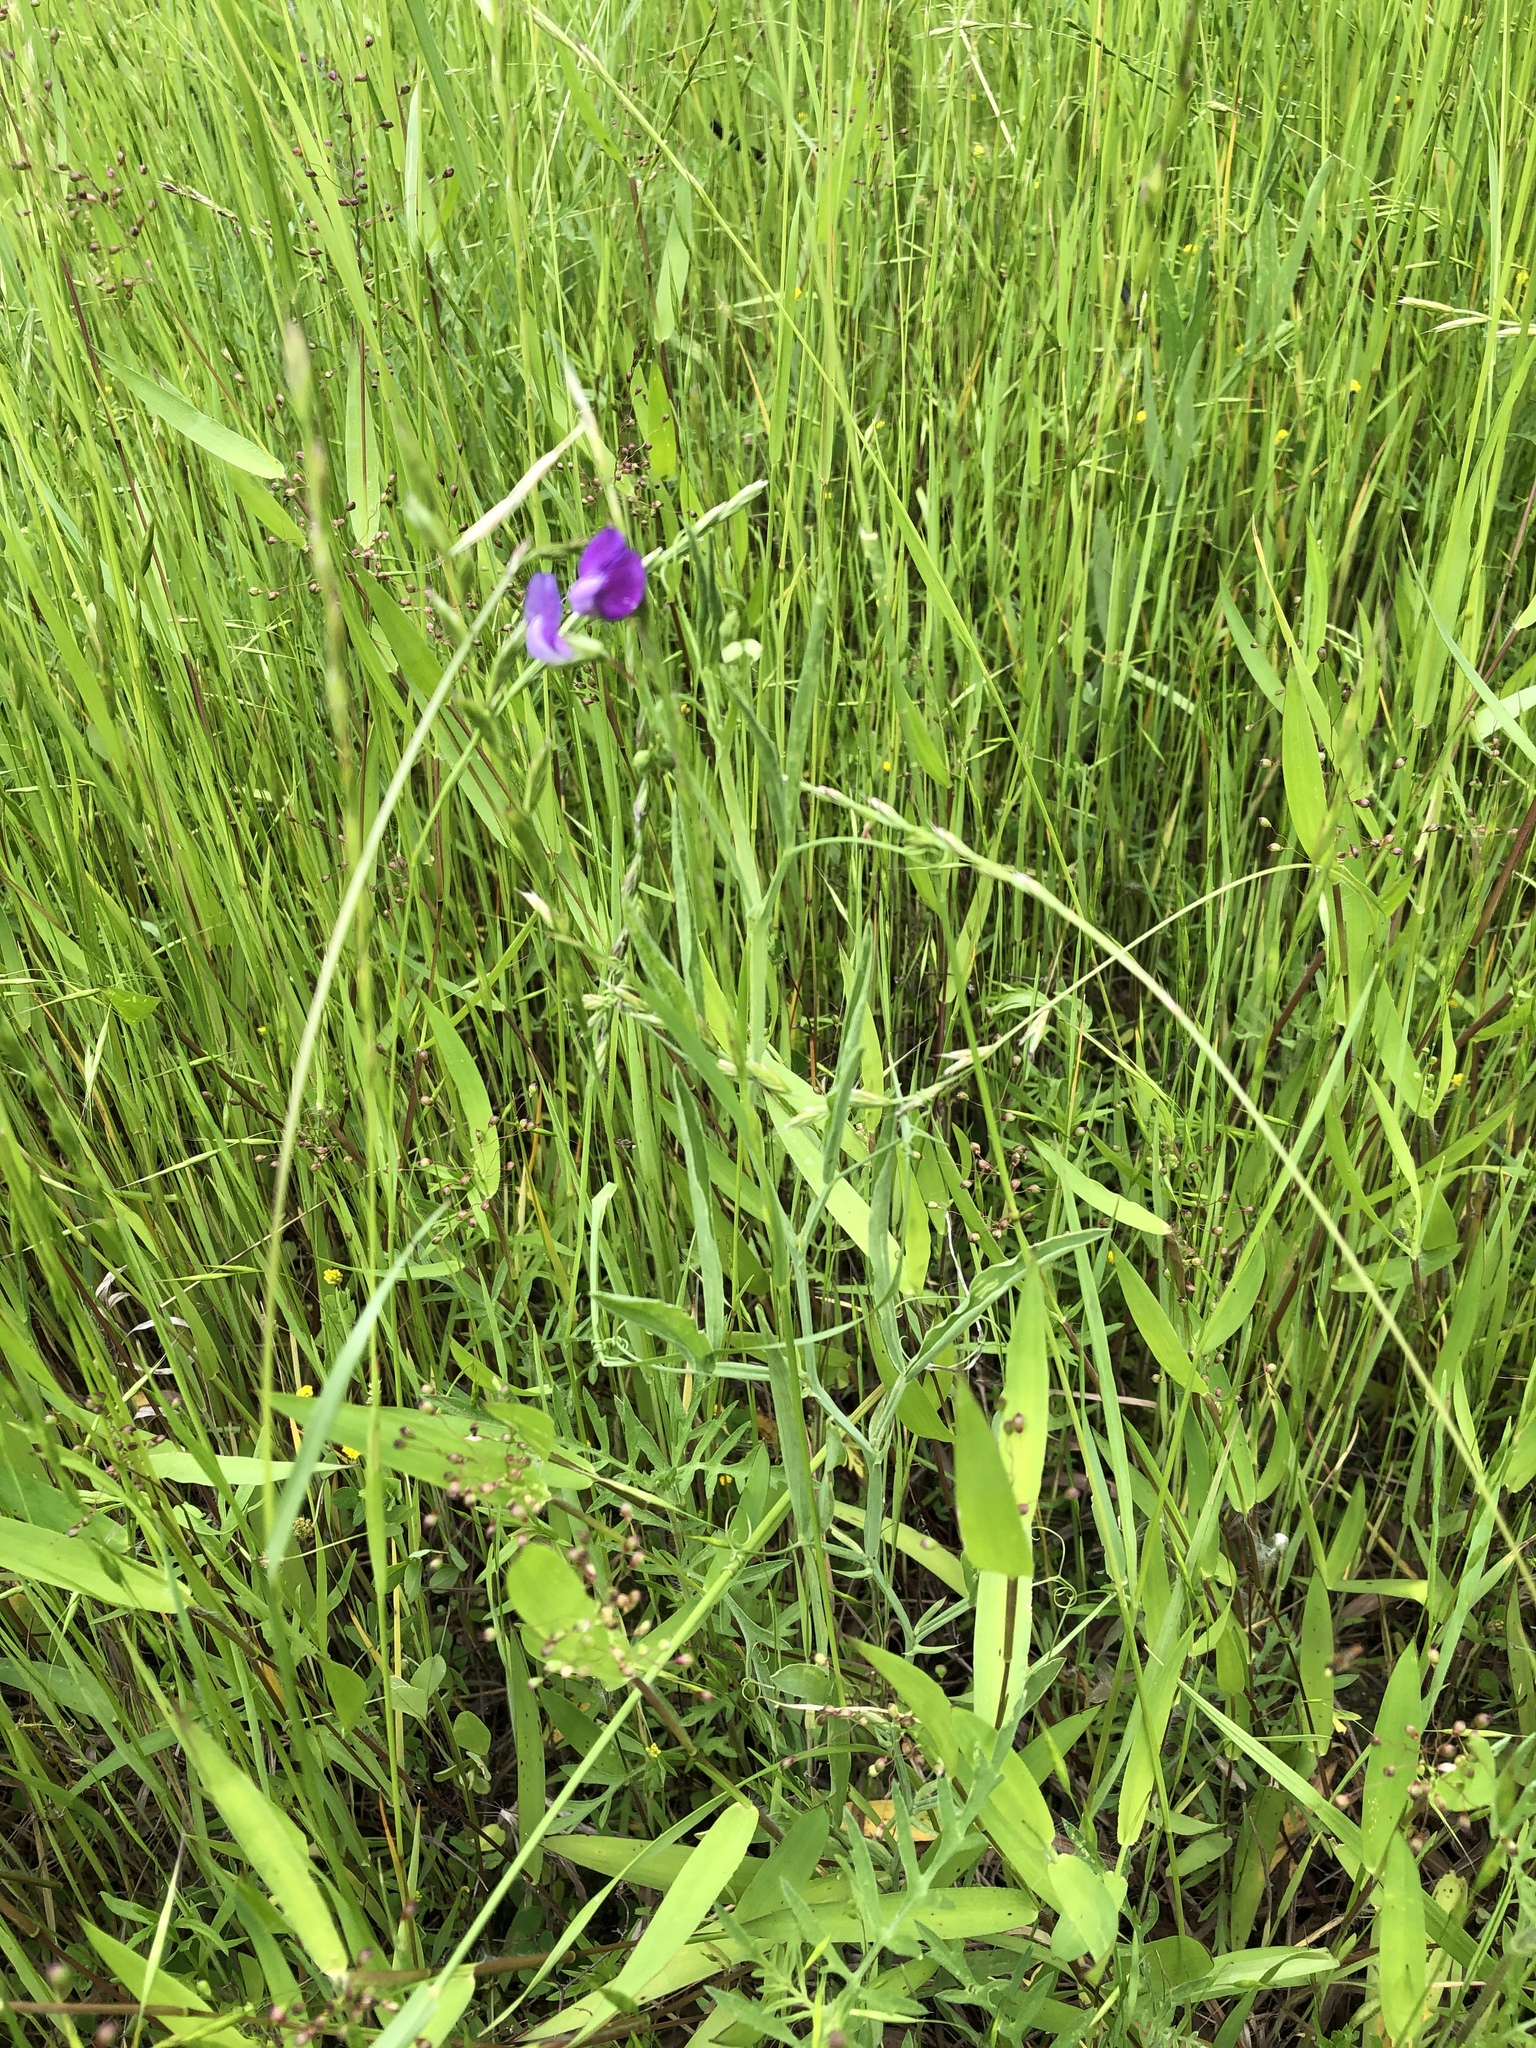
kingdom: Plantae
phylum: Tracheophyta
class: Magnoliopsida
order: Fabales
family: Fabaceae
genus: Lathyrus
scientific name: Lathyrus hirsutus
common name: Hairy vetchling
